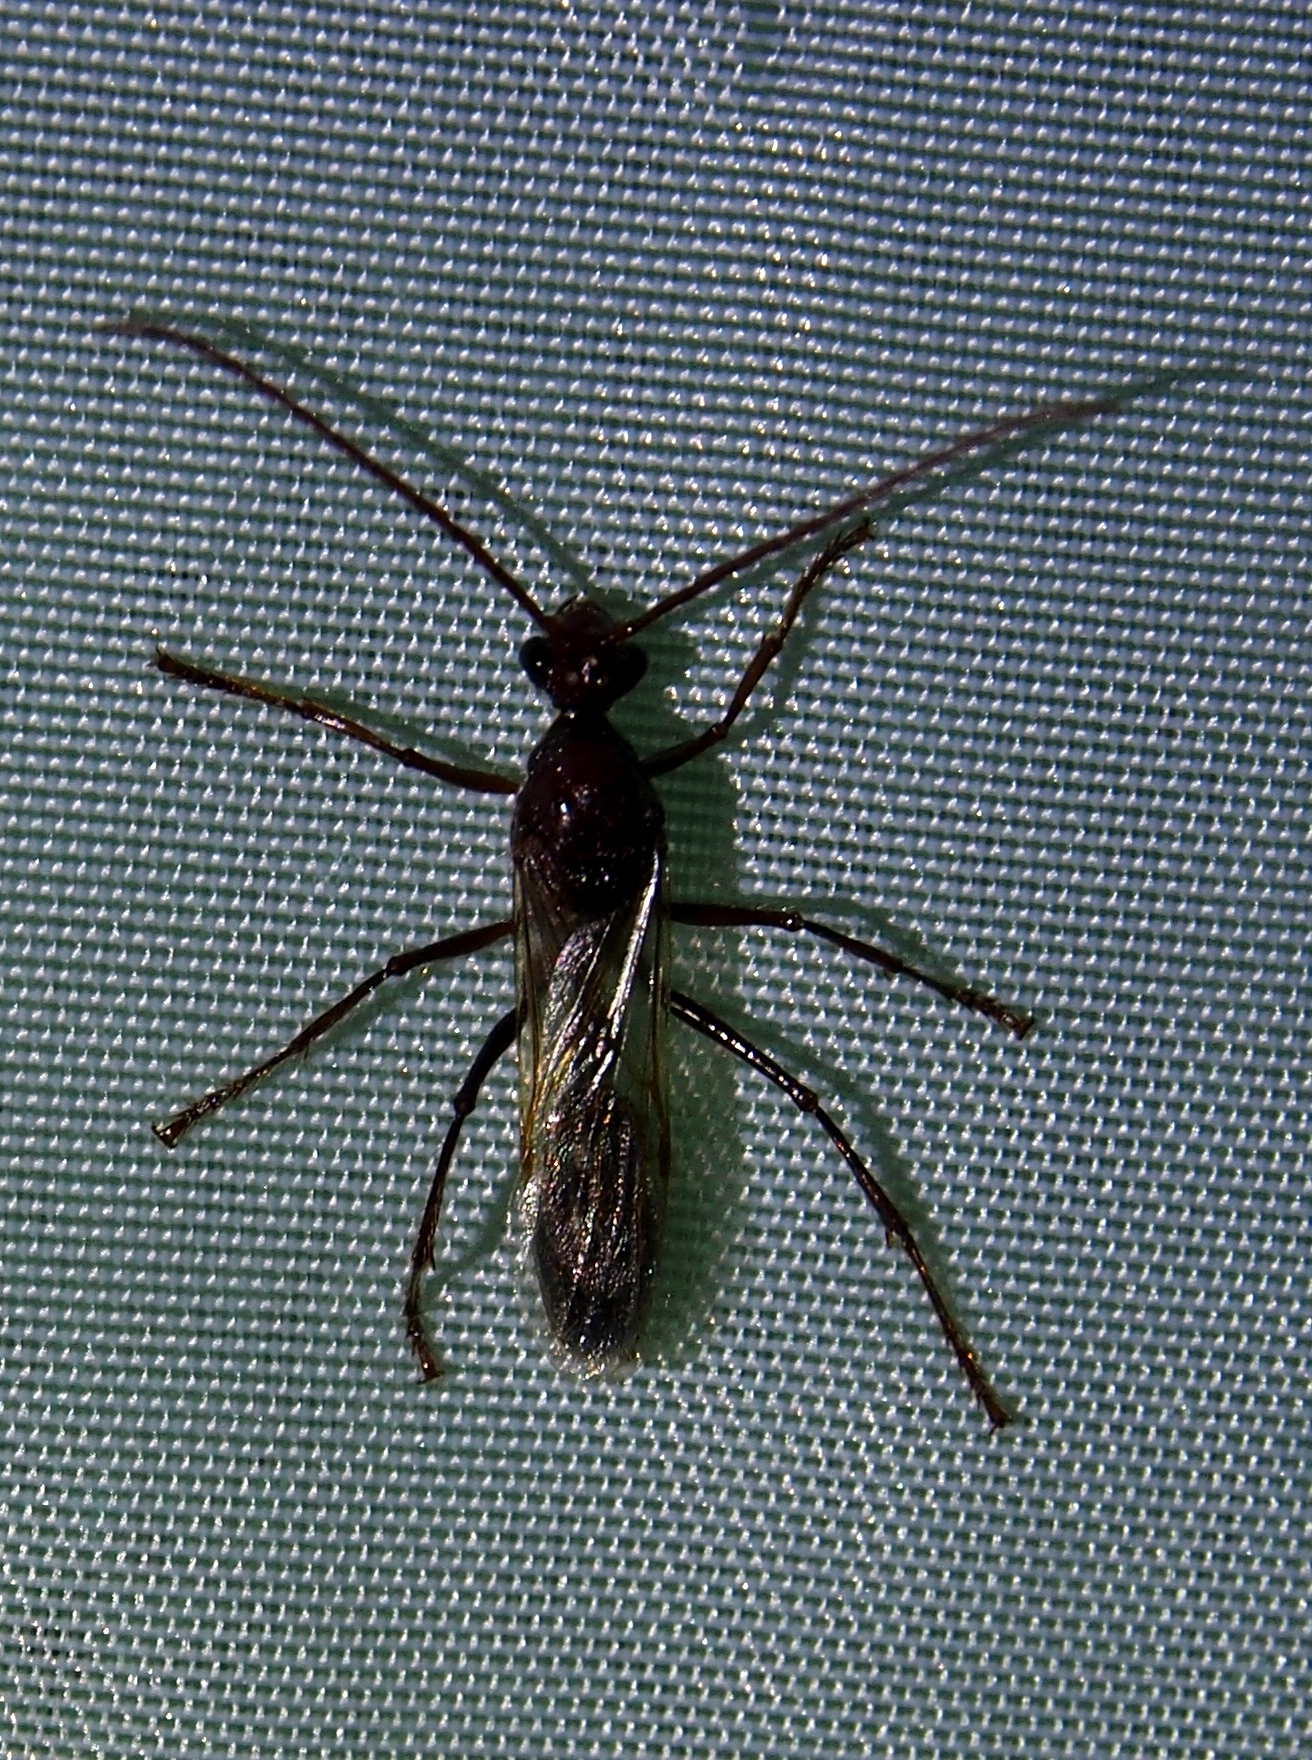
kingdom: Animalia
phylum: Arthropoda
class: Insecta
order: Hymenoptera
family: Formicidae
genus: Paraponera
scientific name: Paraponera clavata
